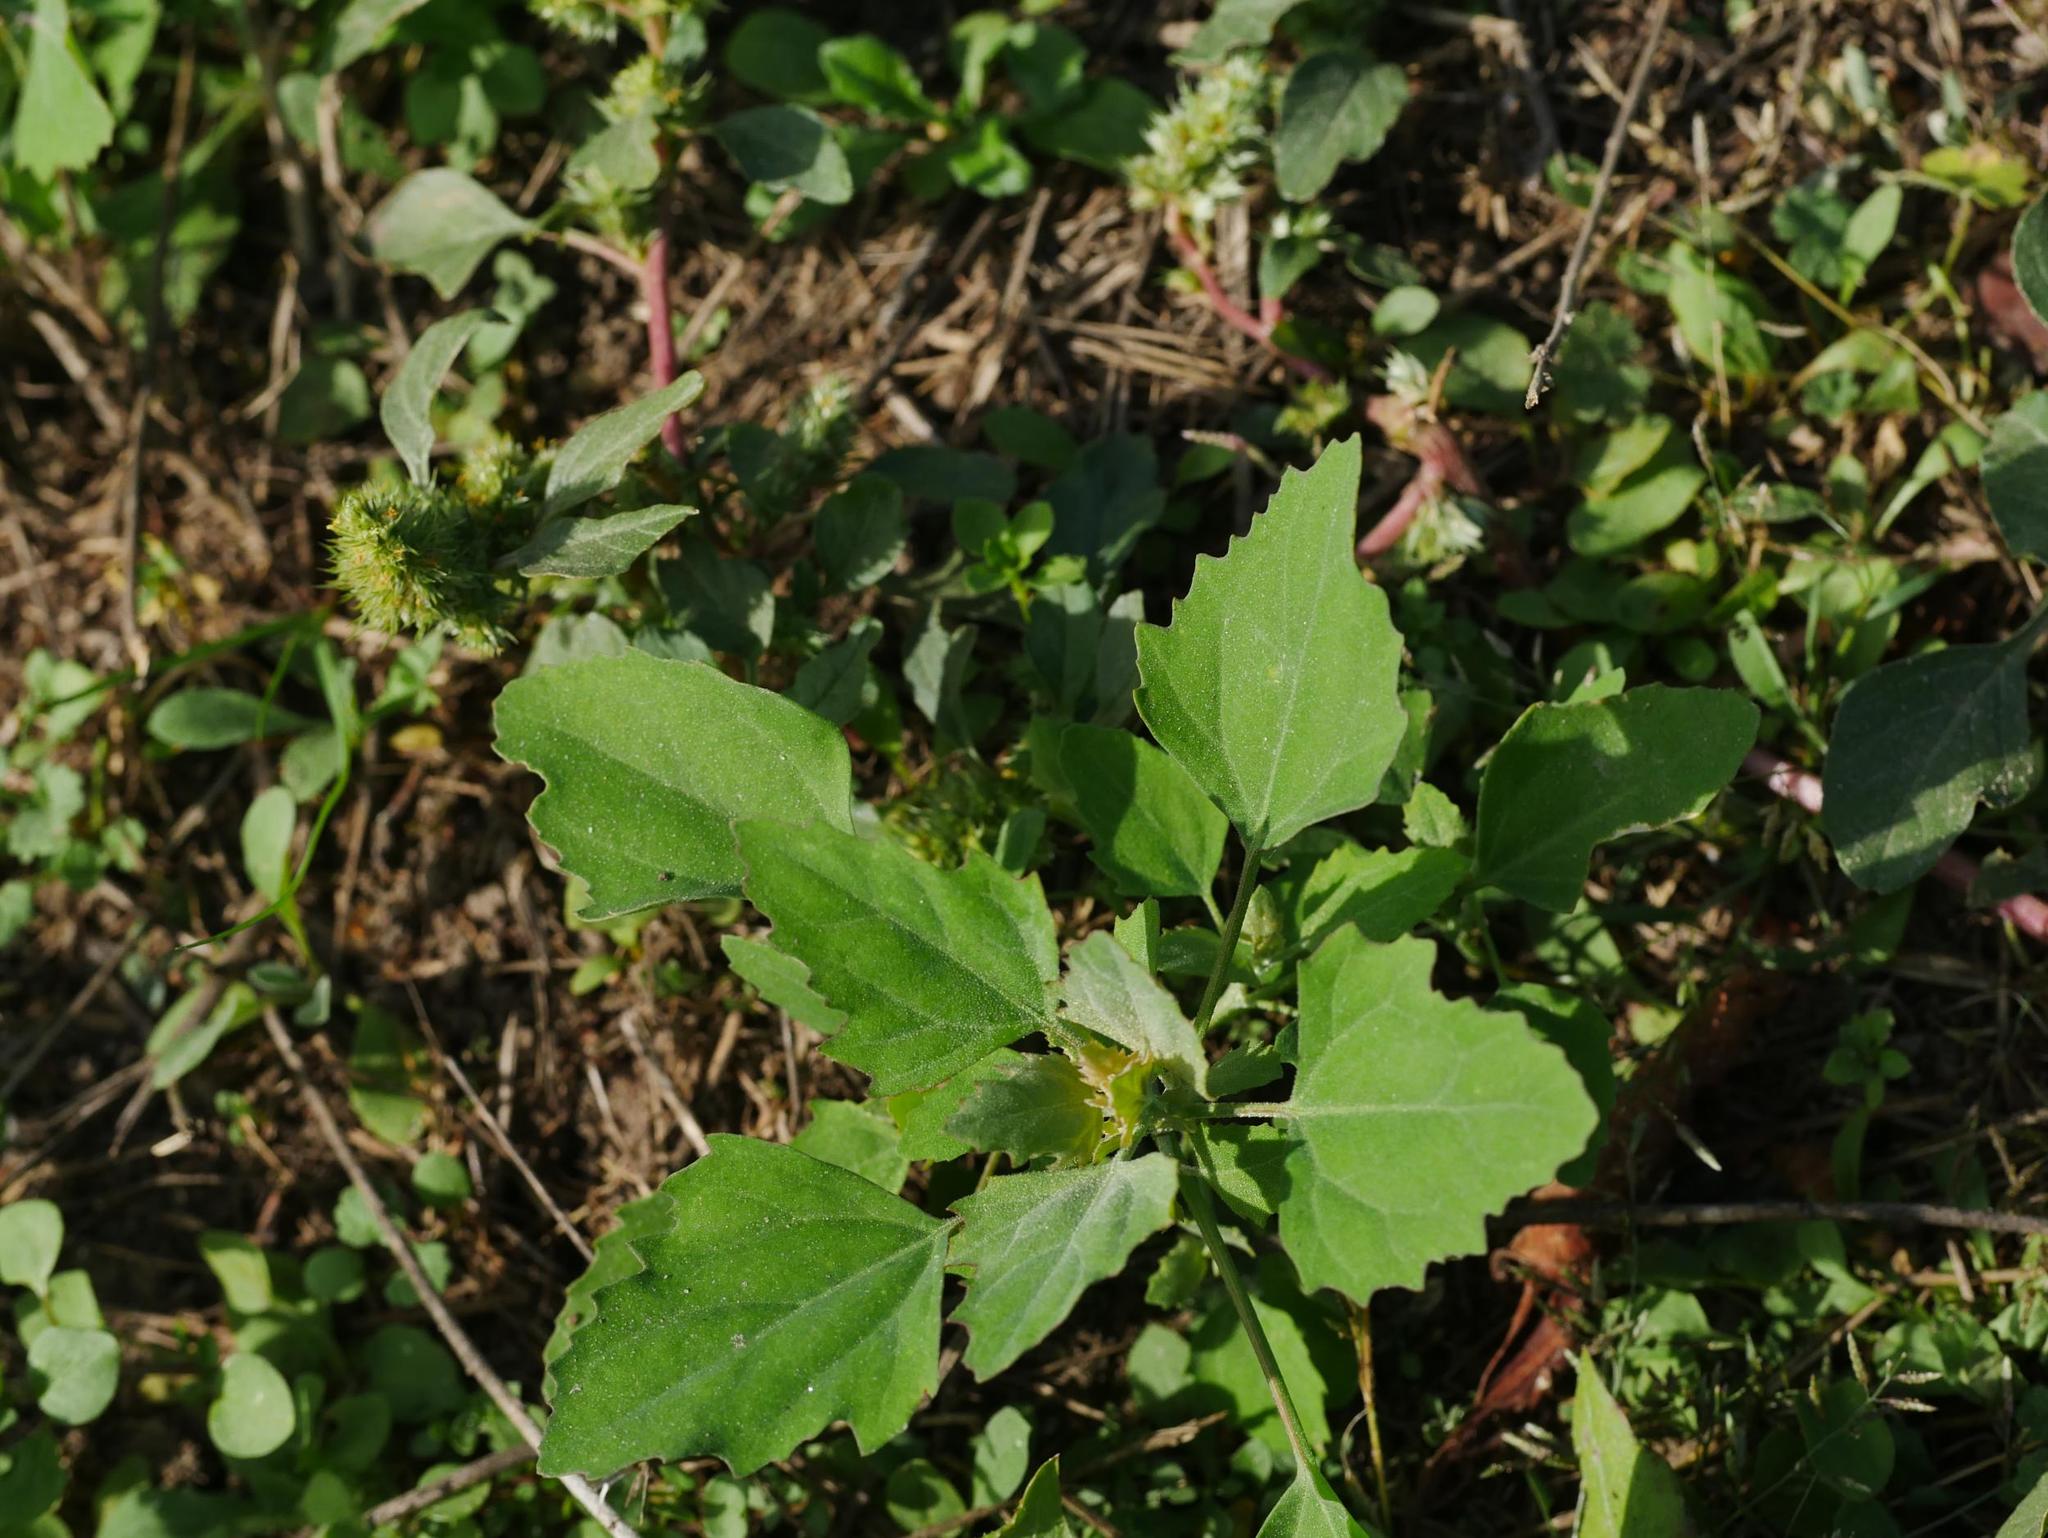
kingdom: Plantae
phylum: Tracheophyta
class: Magnoliopsida
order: Caryophyllales
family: Amaranthaceae
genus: Chenopodium
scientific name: Chenopodium album
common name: Fat-hen
